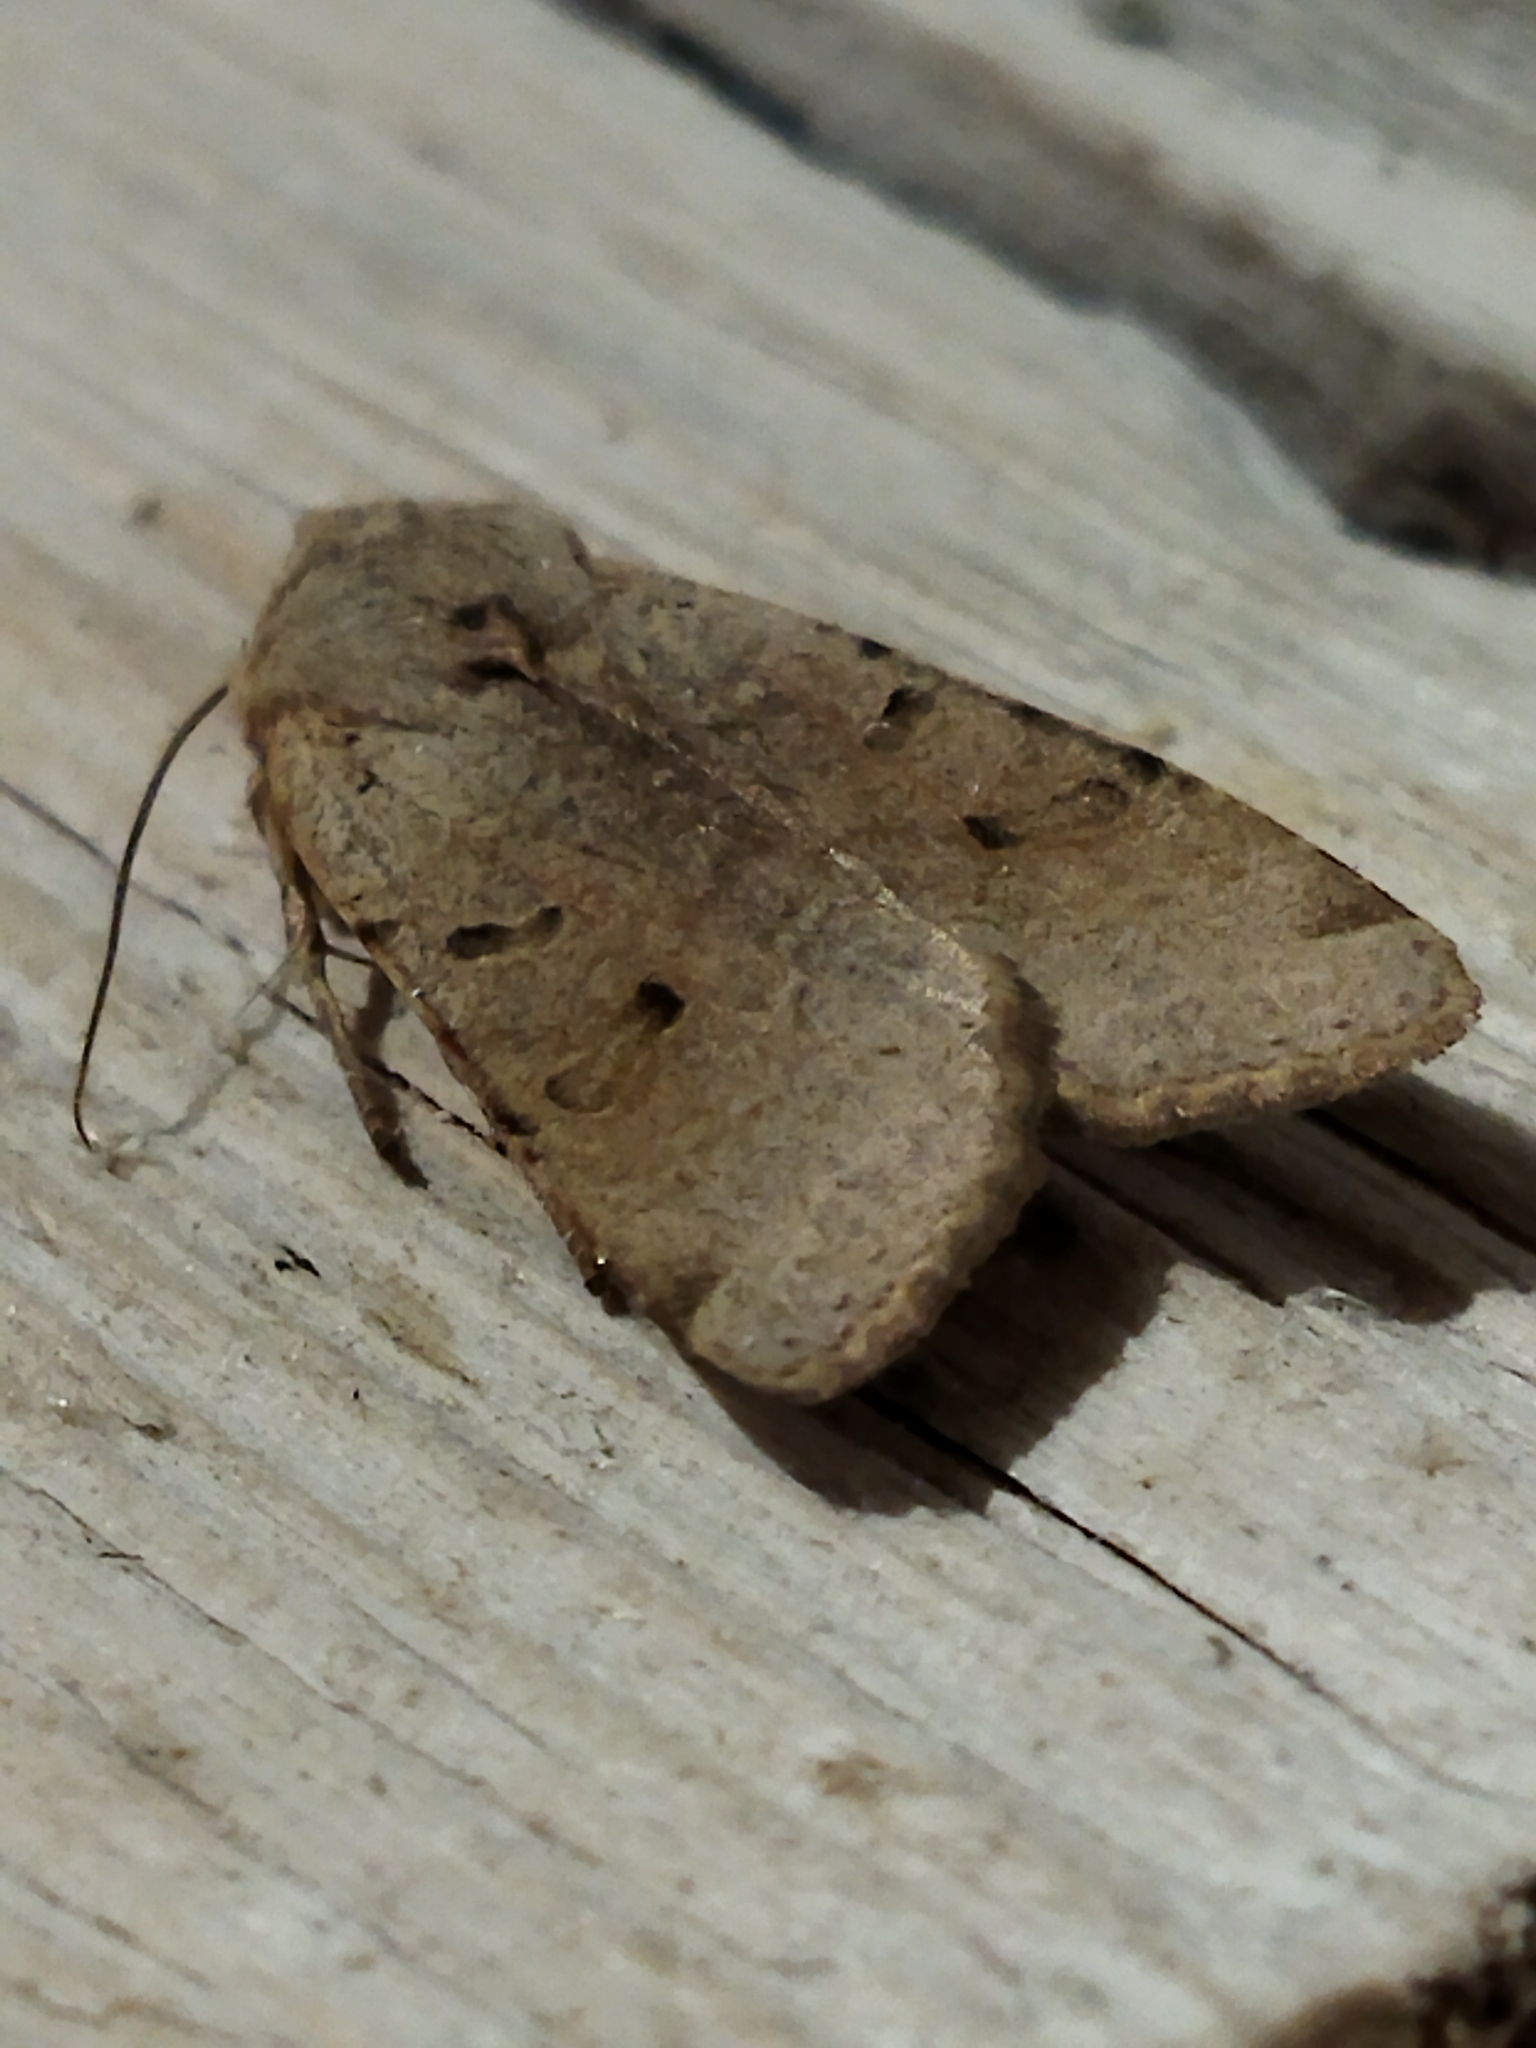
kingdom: Animalia
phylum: Arthropoda
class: Insecta
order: Lepidoptera
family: Noctuidae
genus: Agrochola
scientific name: Agrochola lychnidis
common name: Beaded chestnut
